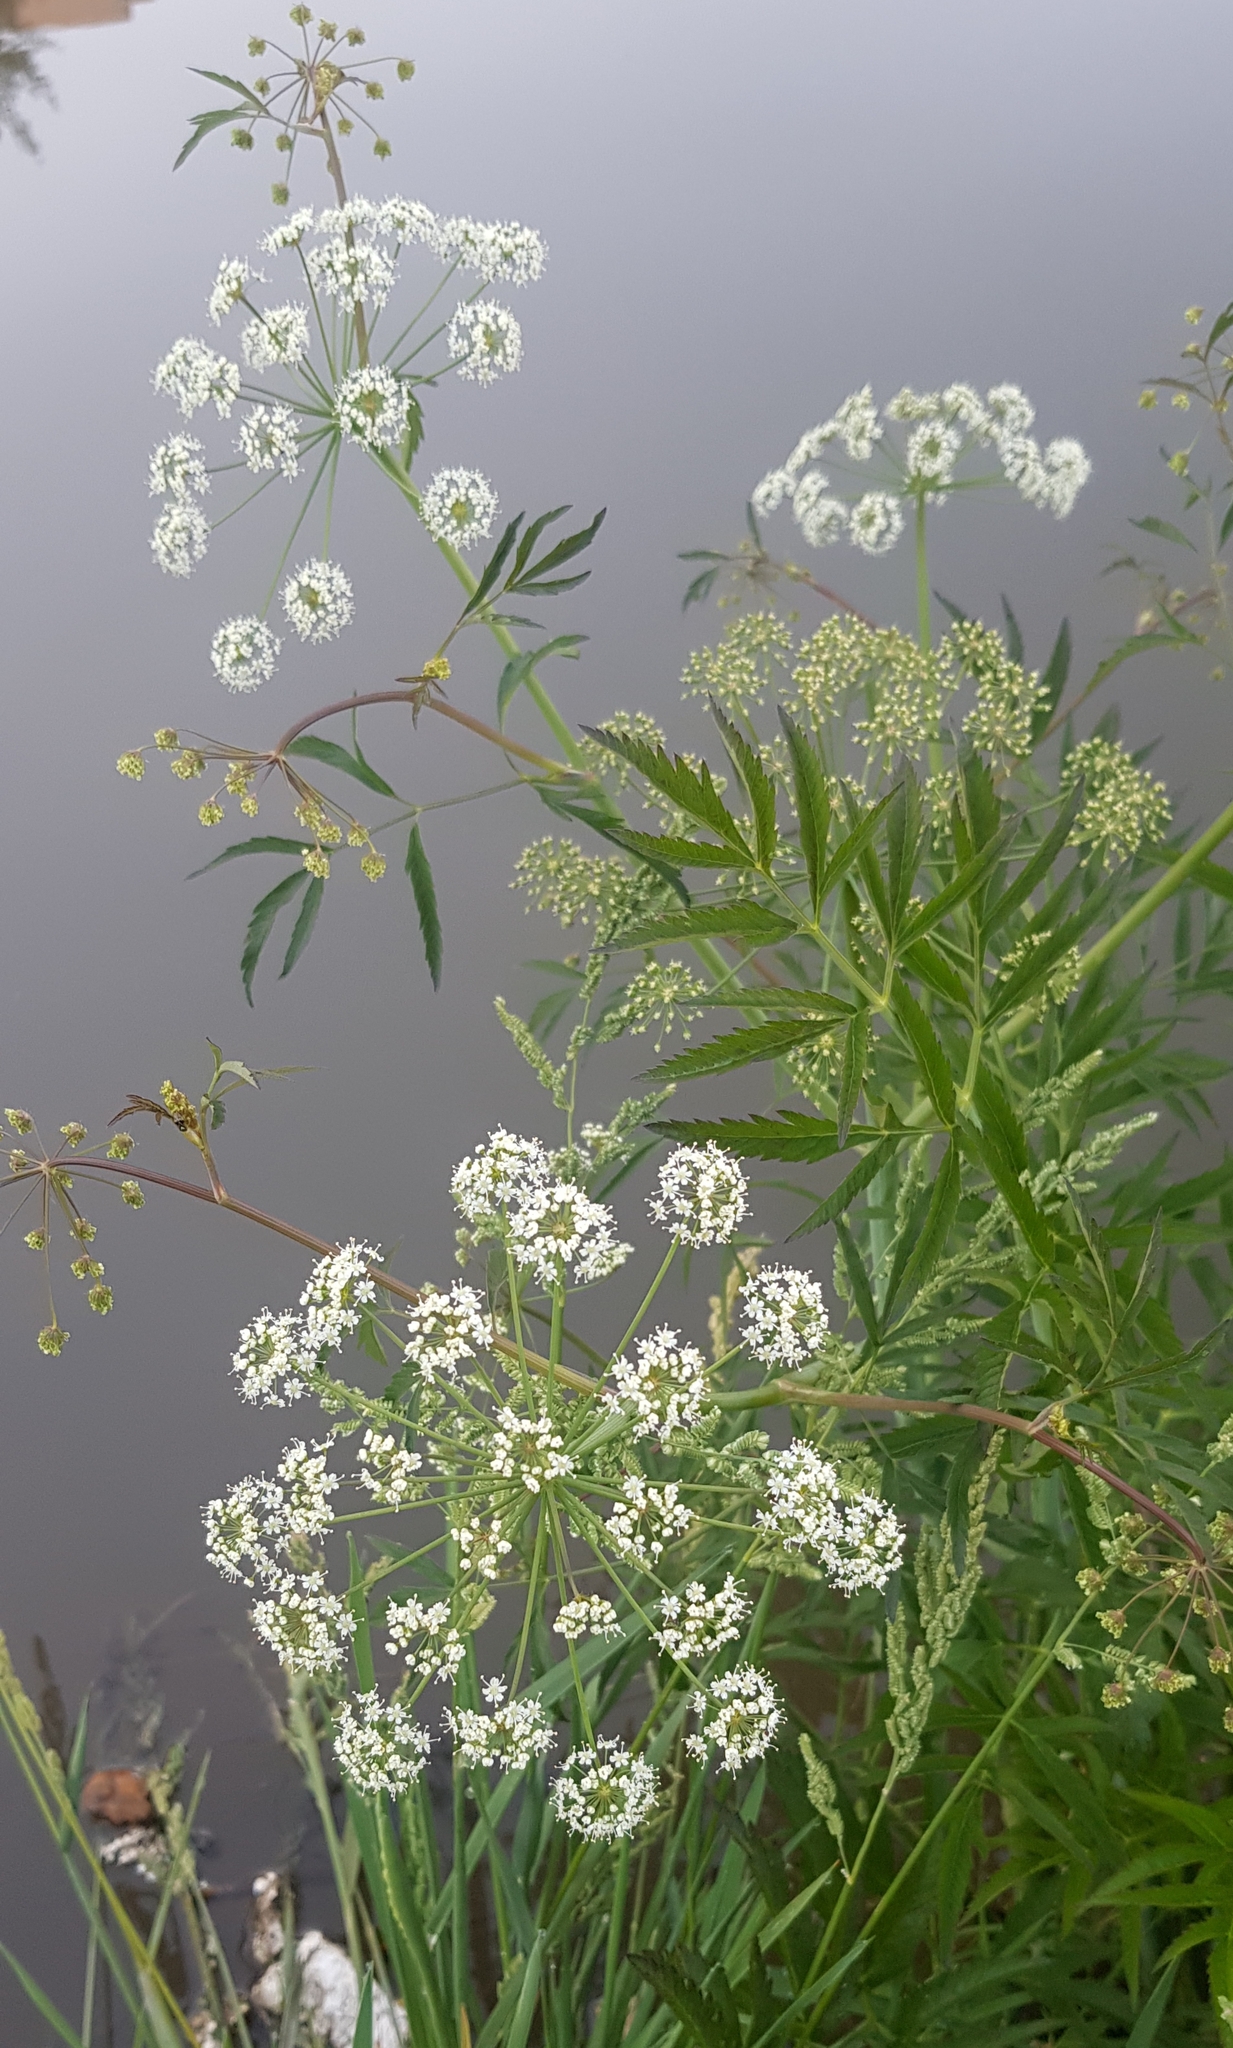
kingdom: Plantae
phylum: Tracheophyta
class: Magnoliopsida
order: Apiales
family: Apiaceae
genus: Cicuta
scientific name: Cicuta virosa
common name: Cowbane
